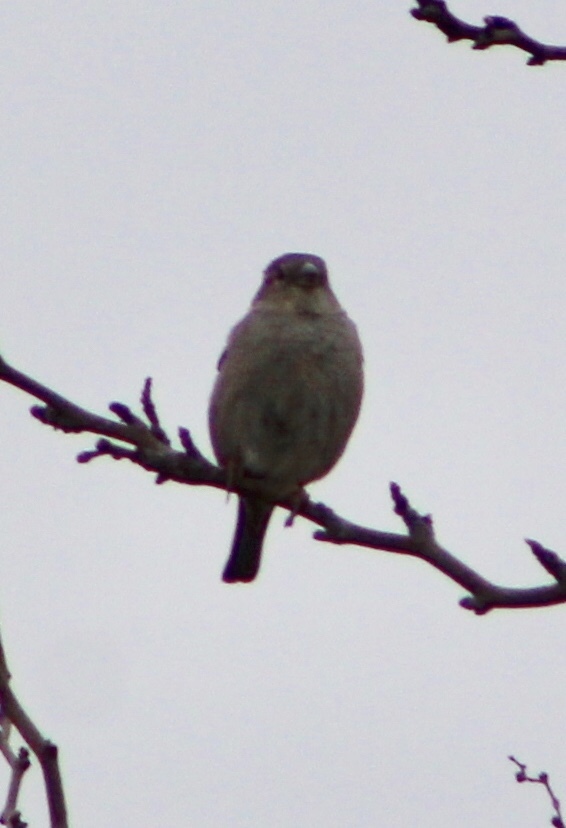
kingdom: Animalia
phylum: Chordata
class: Aves
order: Passeriformes
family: Passeridae
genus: Passer
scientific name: Passer domesticus
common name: House sparrow
